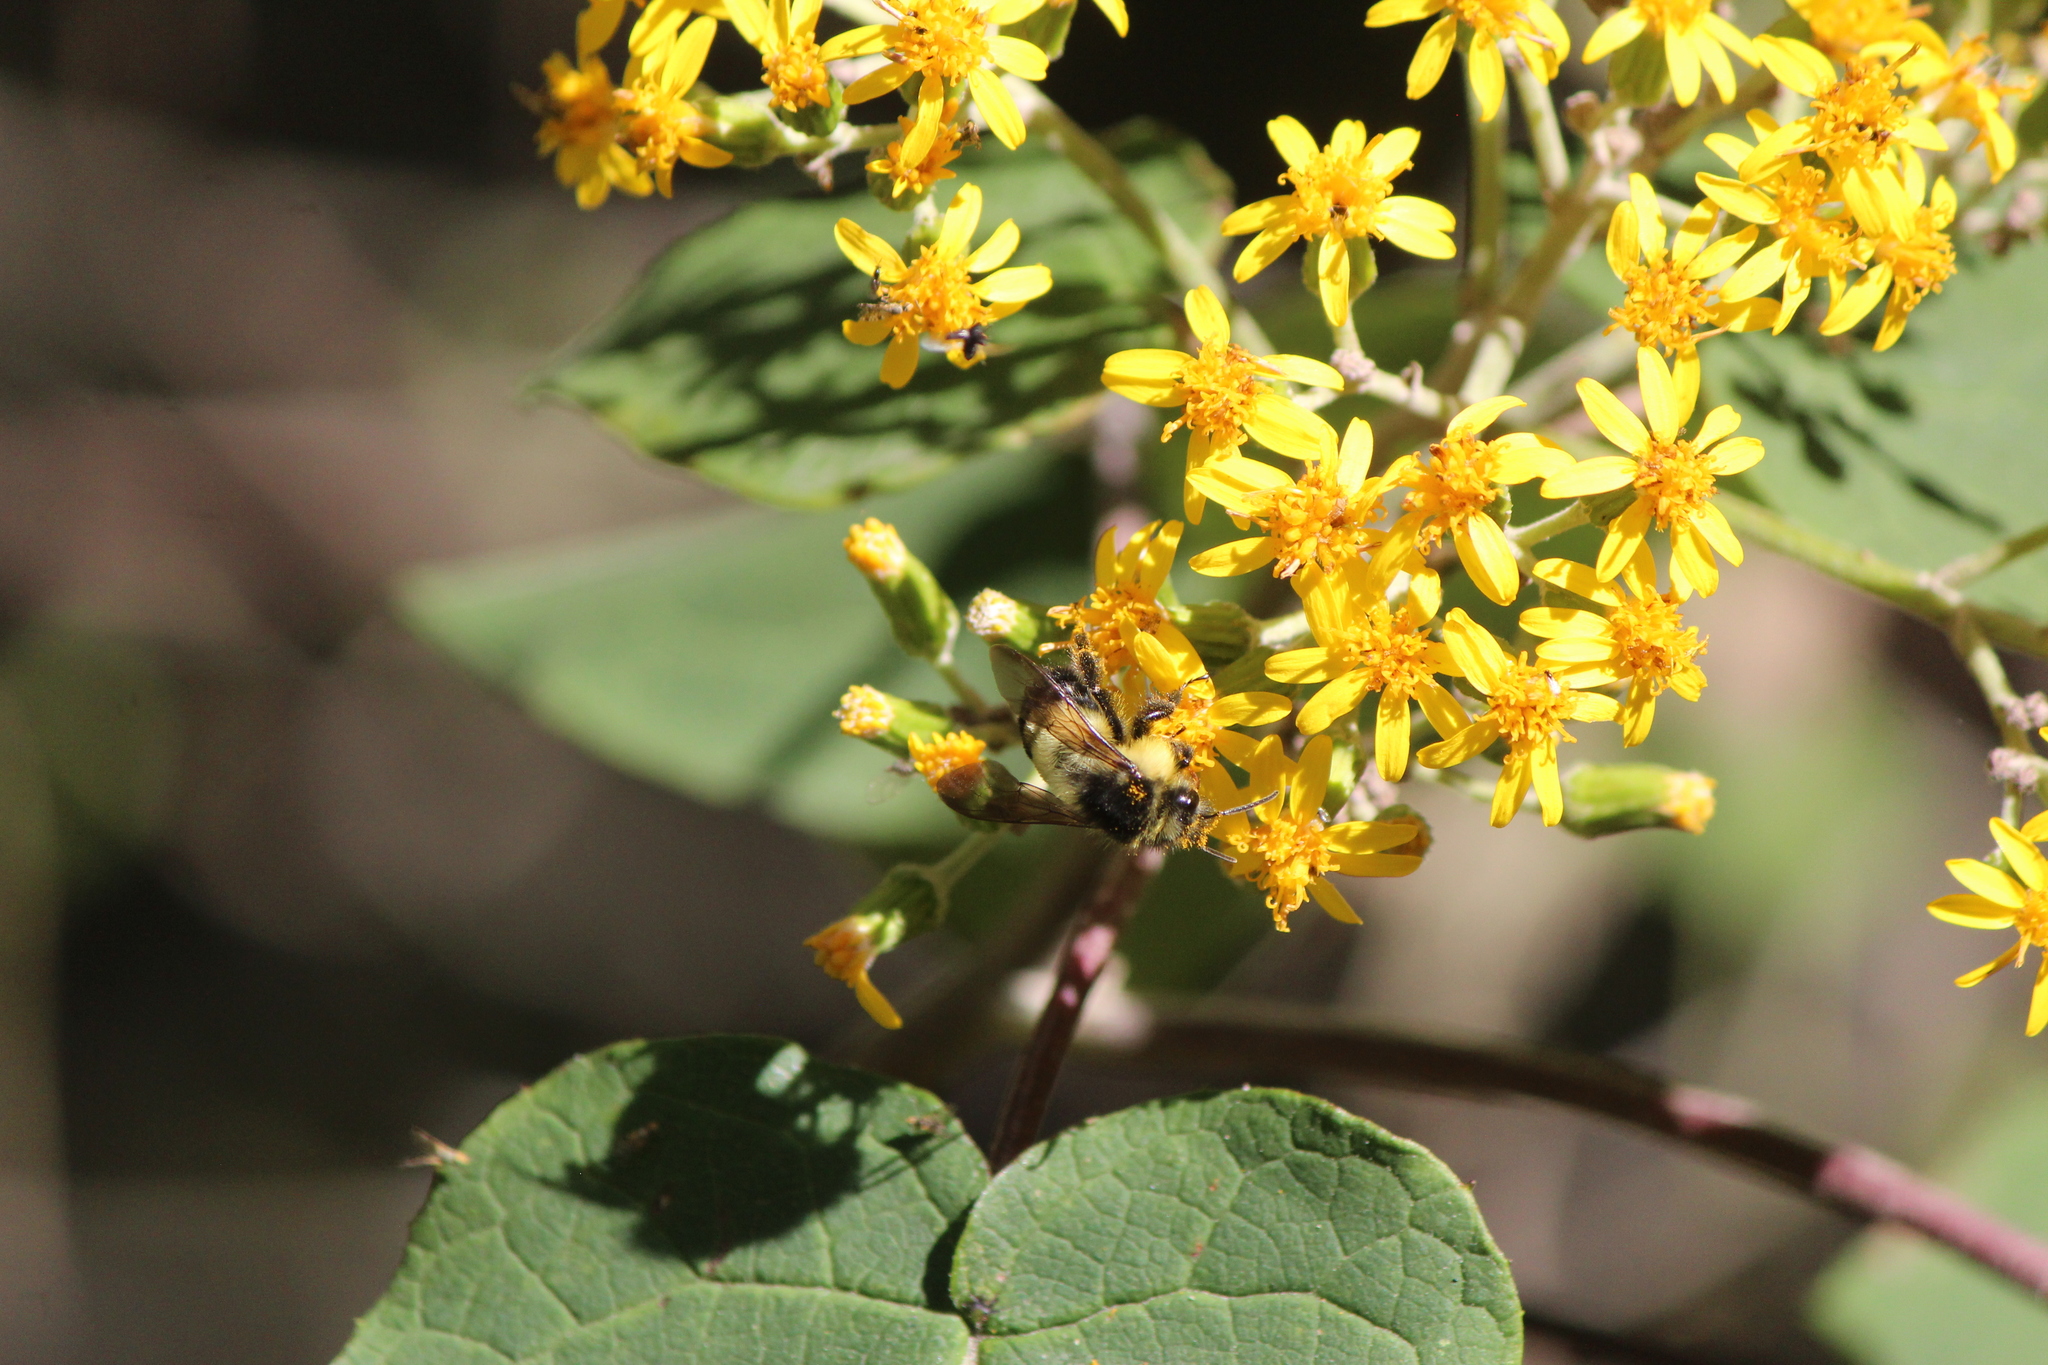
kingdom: Animalia
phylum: Arthropoda
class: Insecta
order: Hymenoptera
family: Apidae
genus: Bombus
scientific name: Bombus weisi
